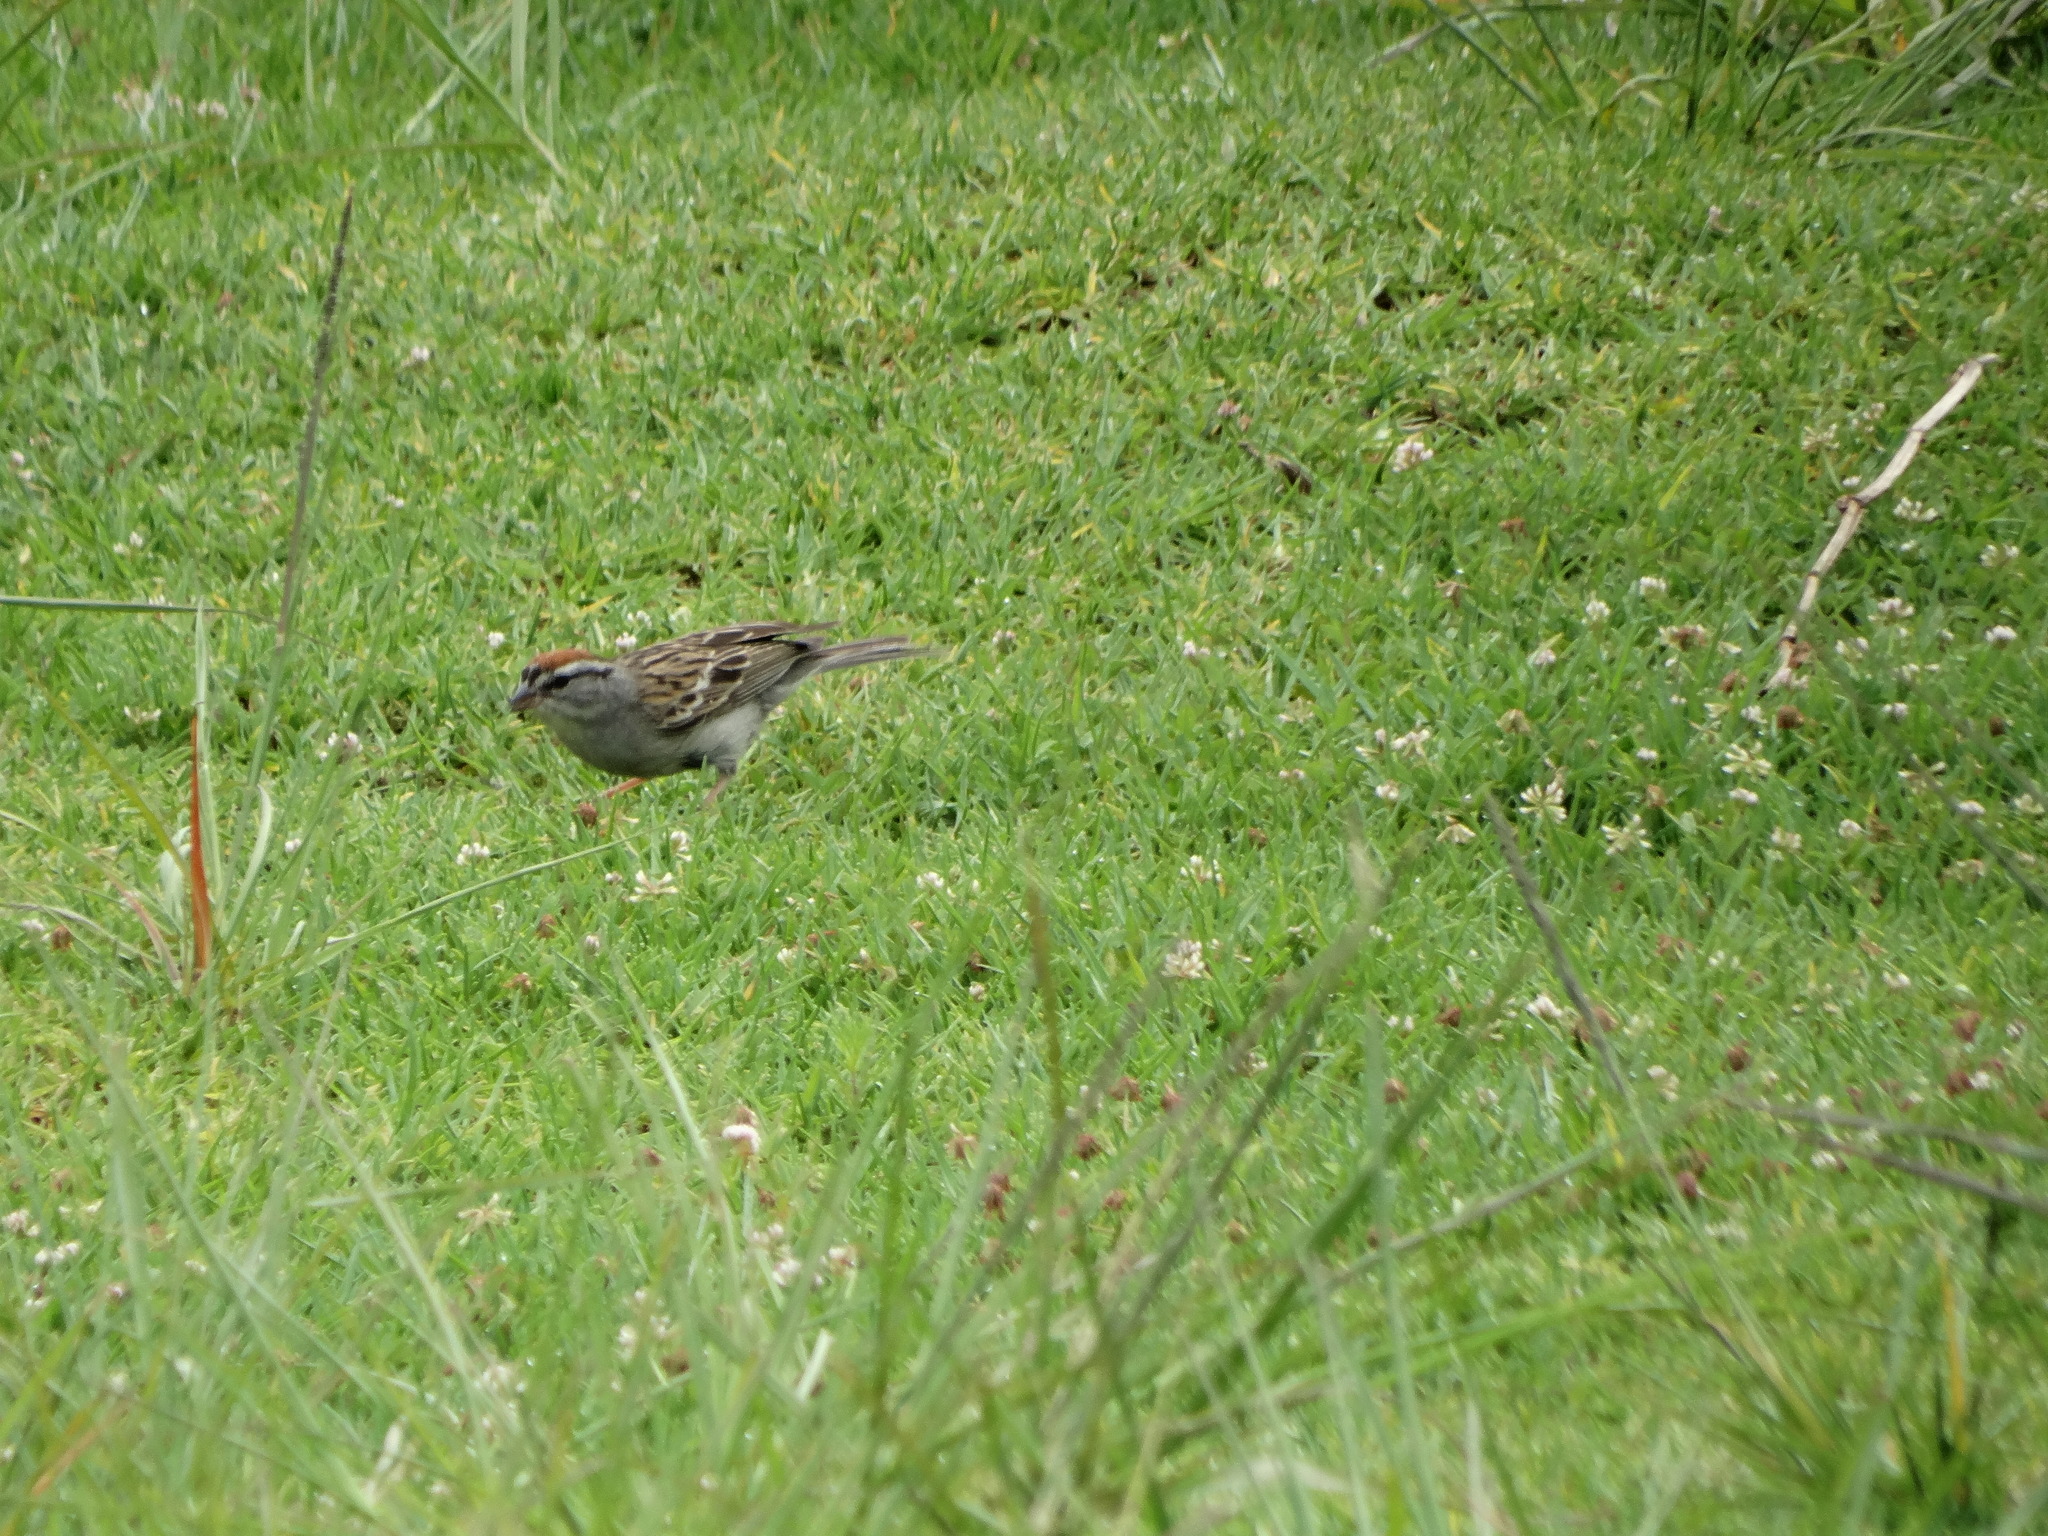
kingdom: Animalia
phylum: Chordata
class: Aves
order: Passeriformes
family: Passerellidae
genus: Spizella
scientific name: Spizella passerina
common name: Chipping sparrow
